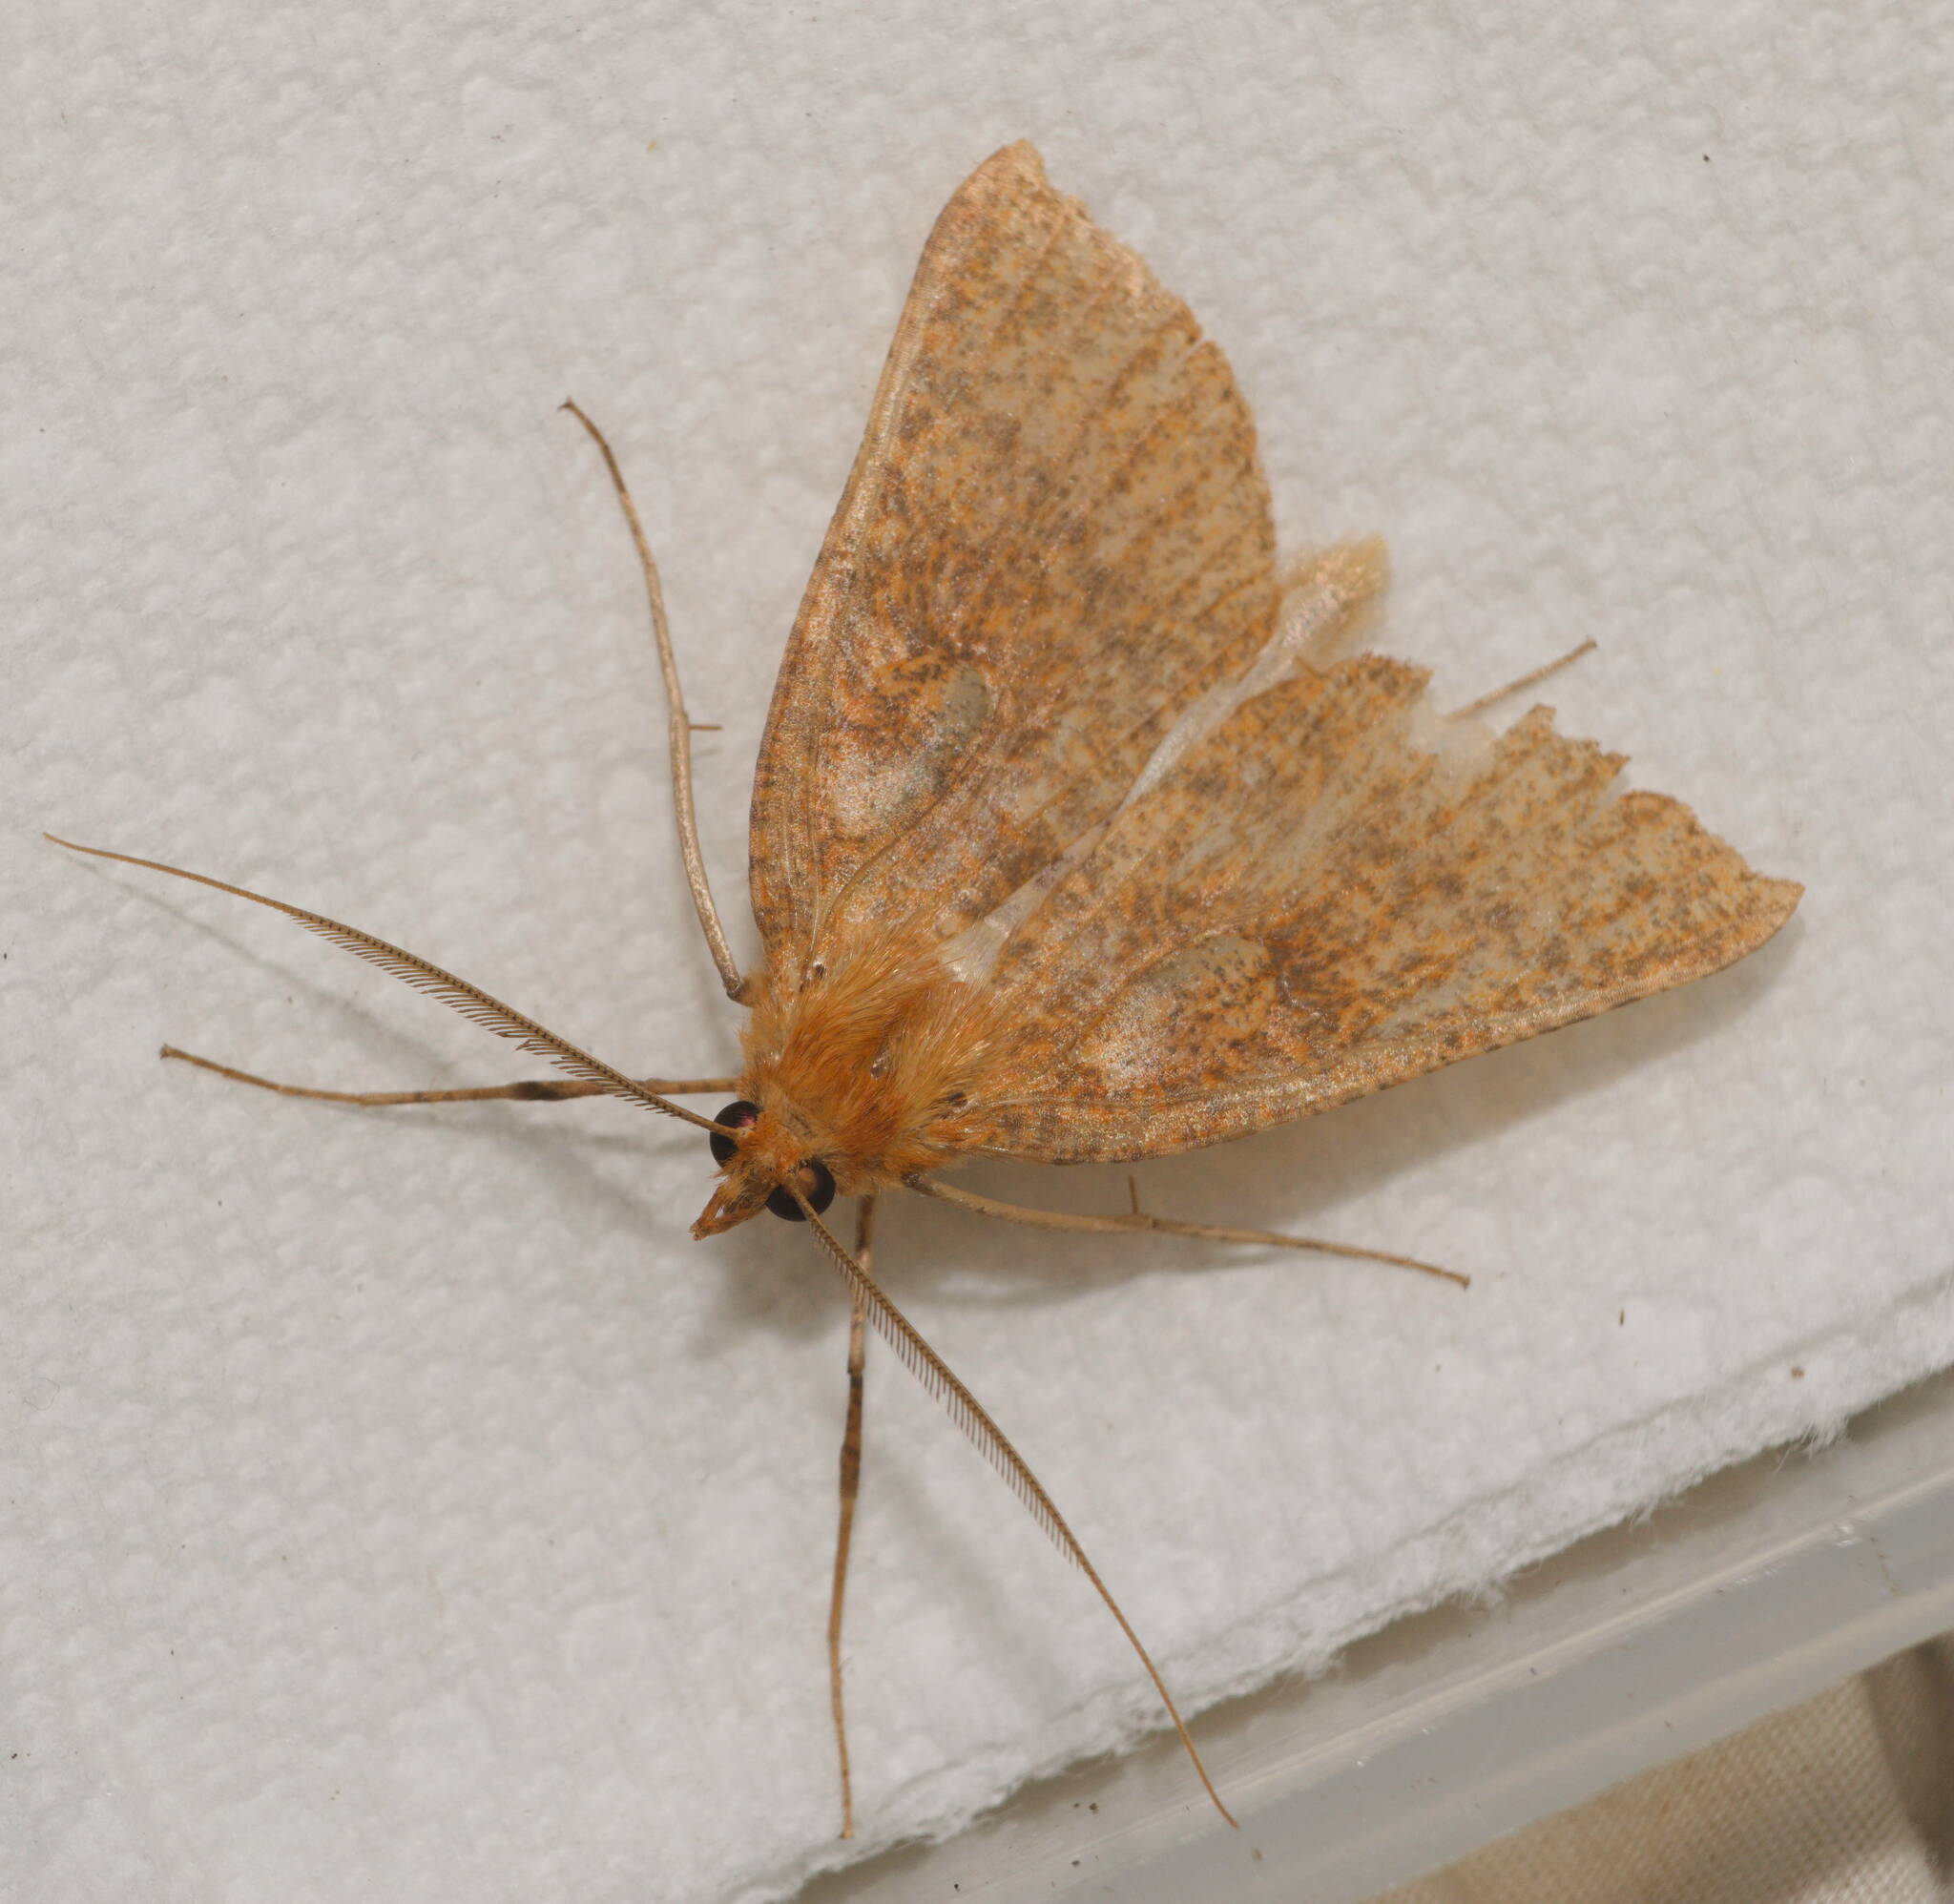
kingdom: Animalia
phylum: Arthropoda
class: Insecta
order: Lepidoptera
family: Geometridae
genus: Scotorythra
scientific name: Scotorythra epixantha
